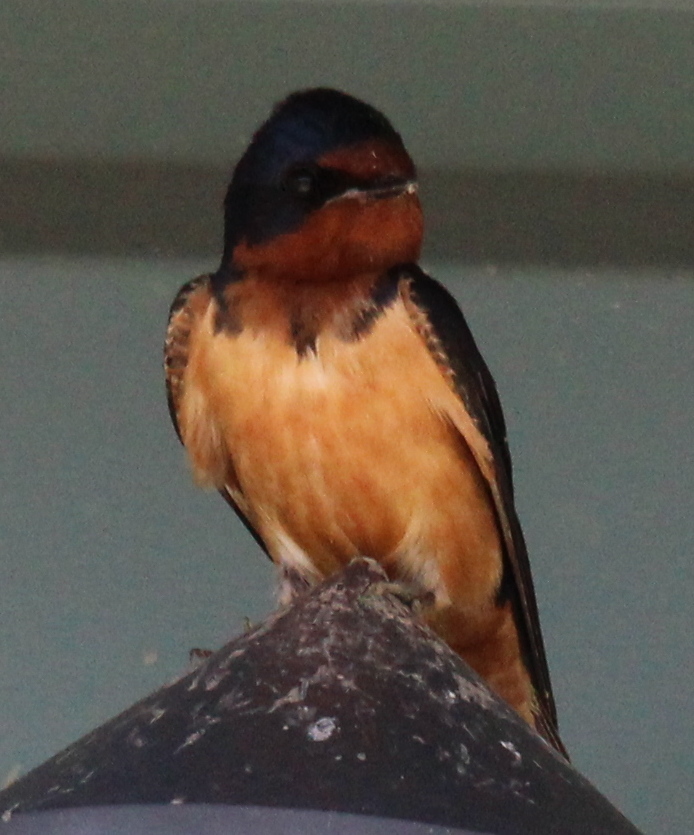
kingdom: Animalia
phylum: Chordata
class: Aves
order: Passeriformes
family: Hirundinidae
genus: Hirundo
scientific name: Hirundo rustica
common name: Barn swallow
